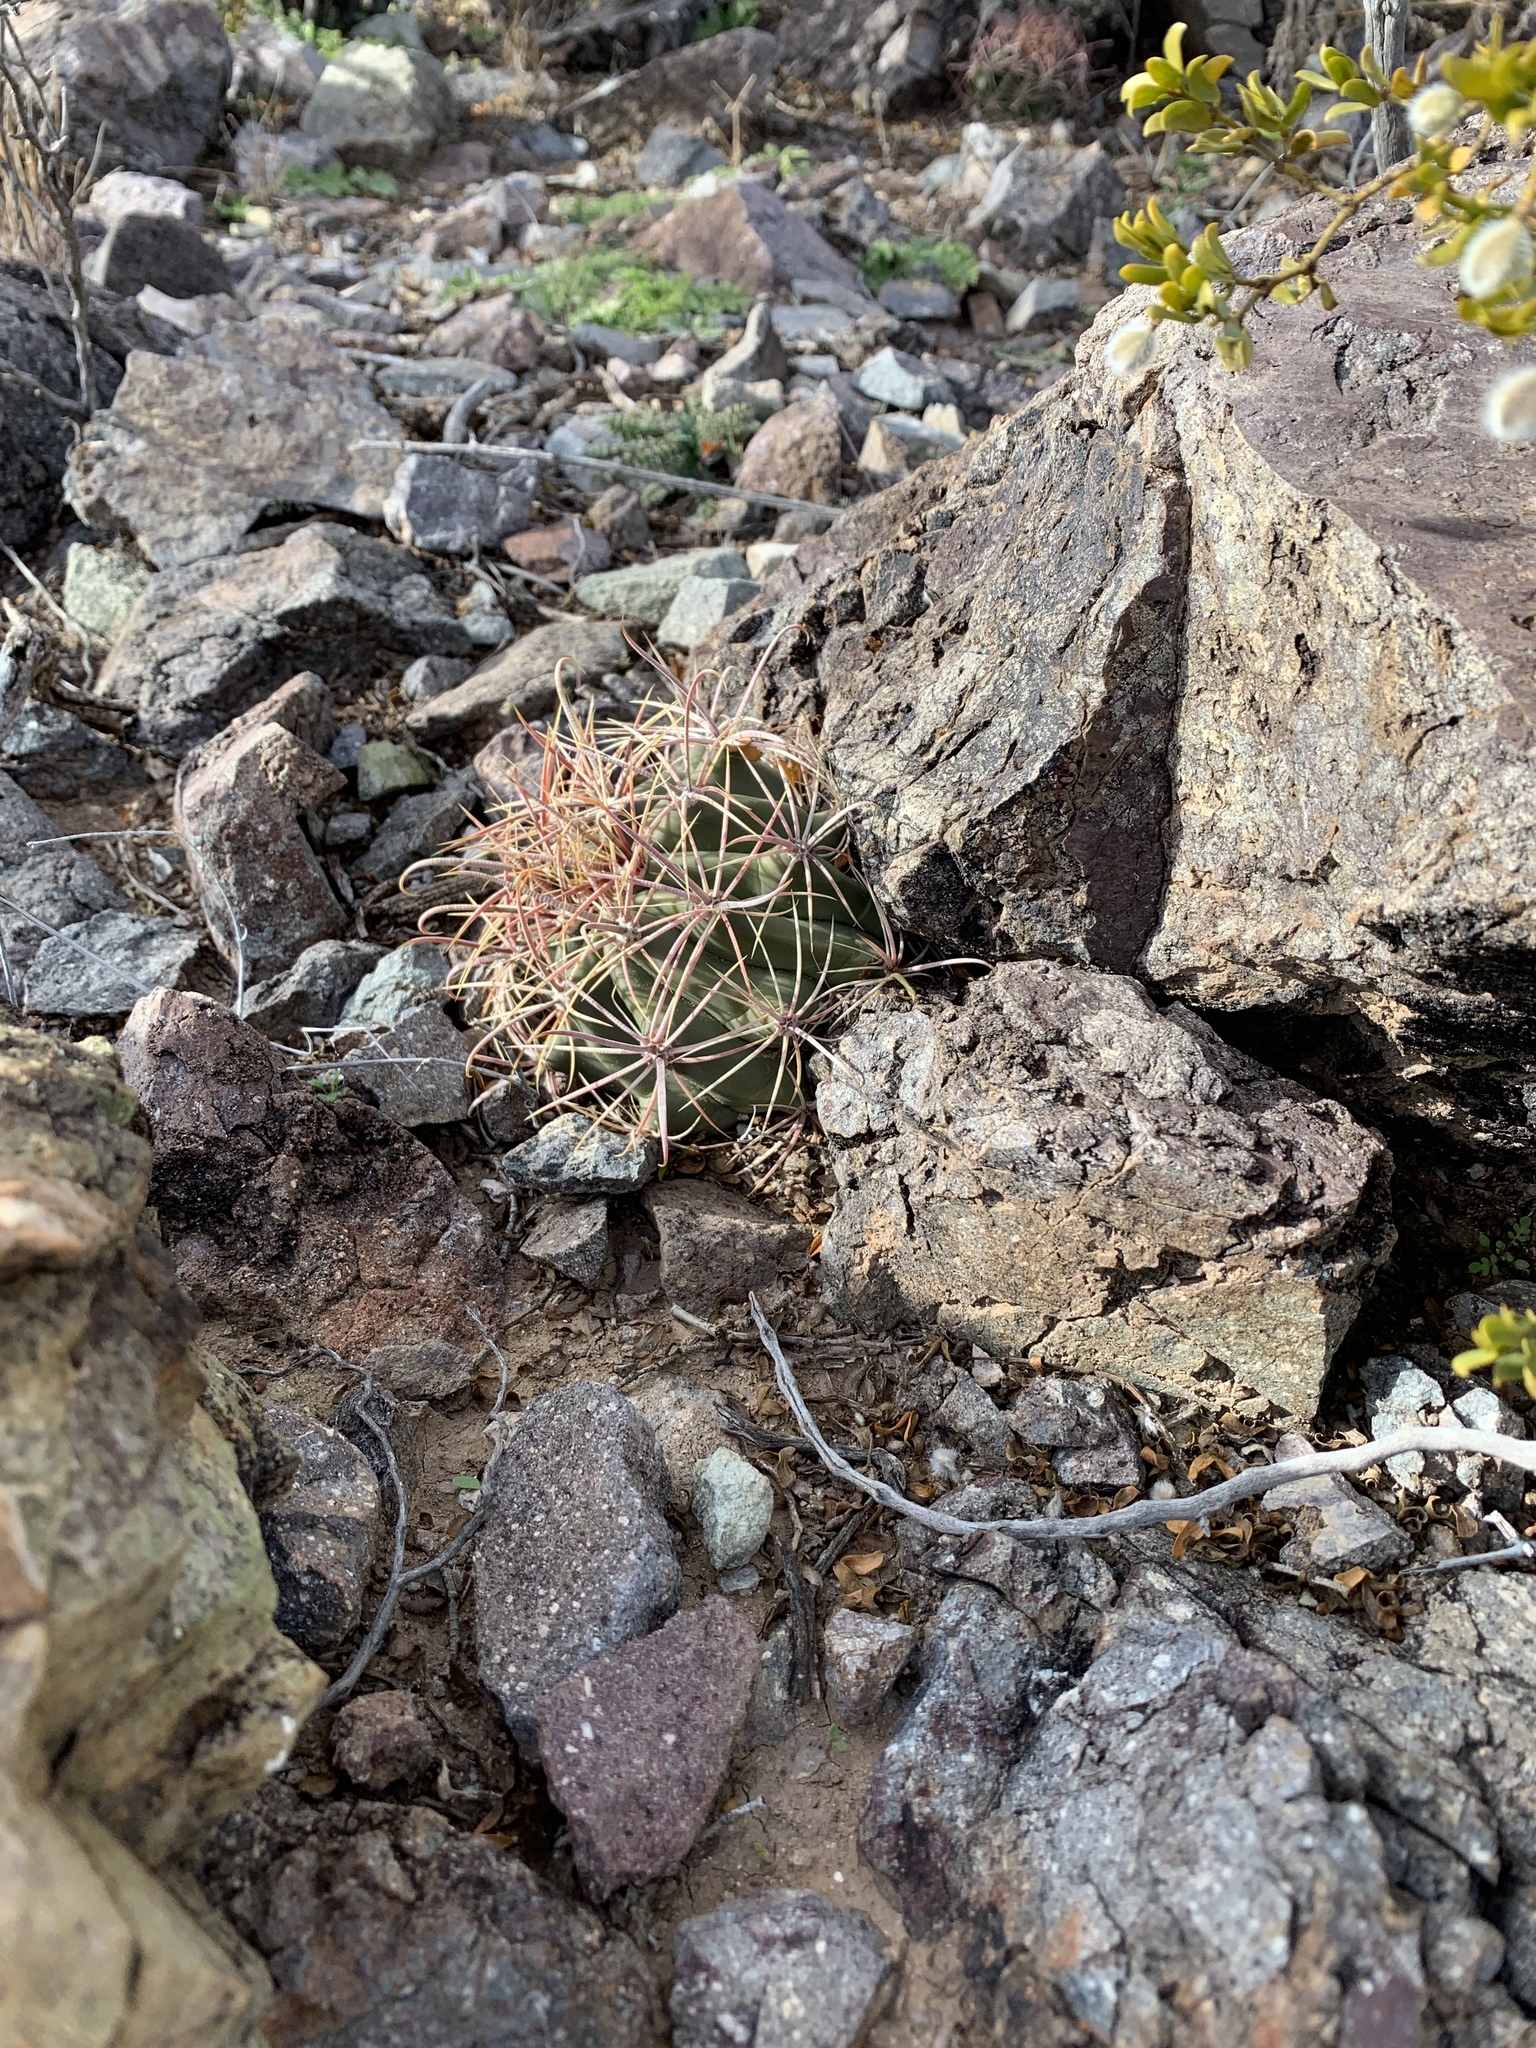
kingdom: Plantae
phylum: Tracheophyta
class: Magnoliopsida
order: Caryophyllales
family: Cactaceae
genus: Ferocactus
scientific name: Ferocactus wislizeni
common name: Candy barrel cactus
